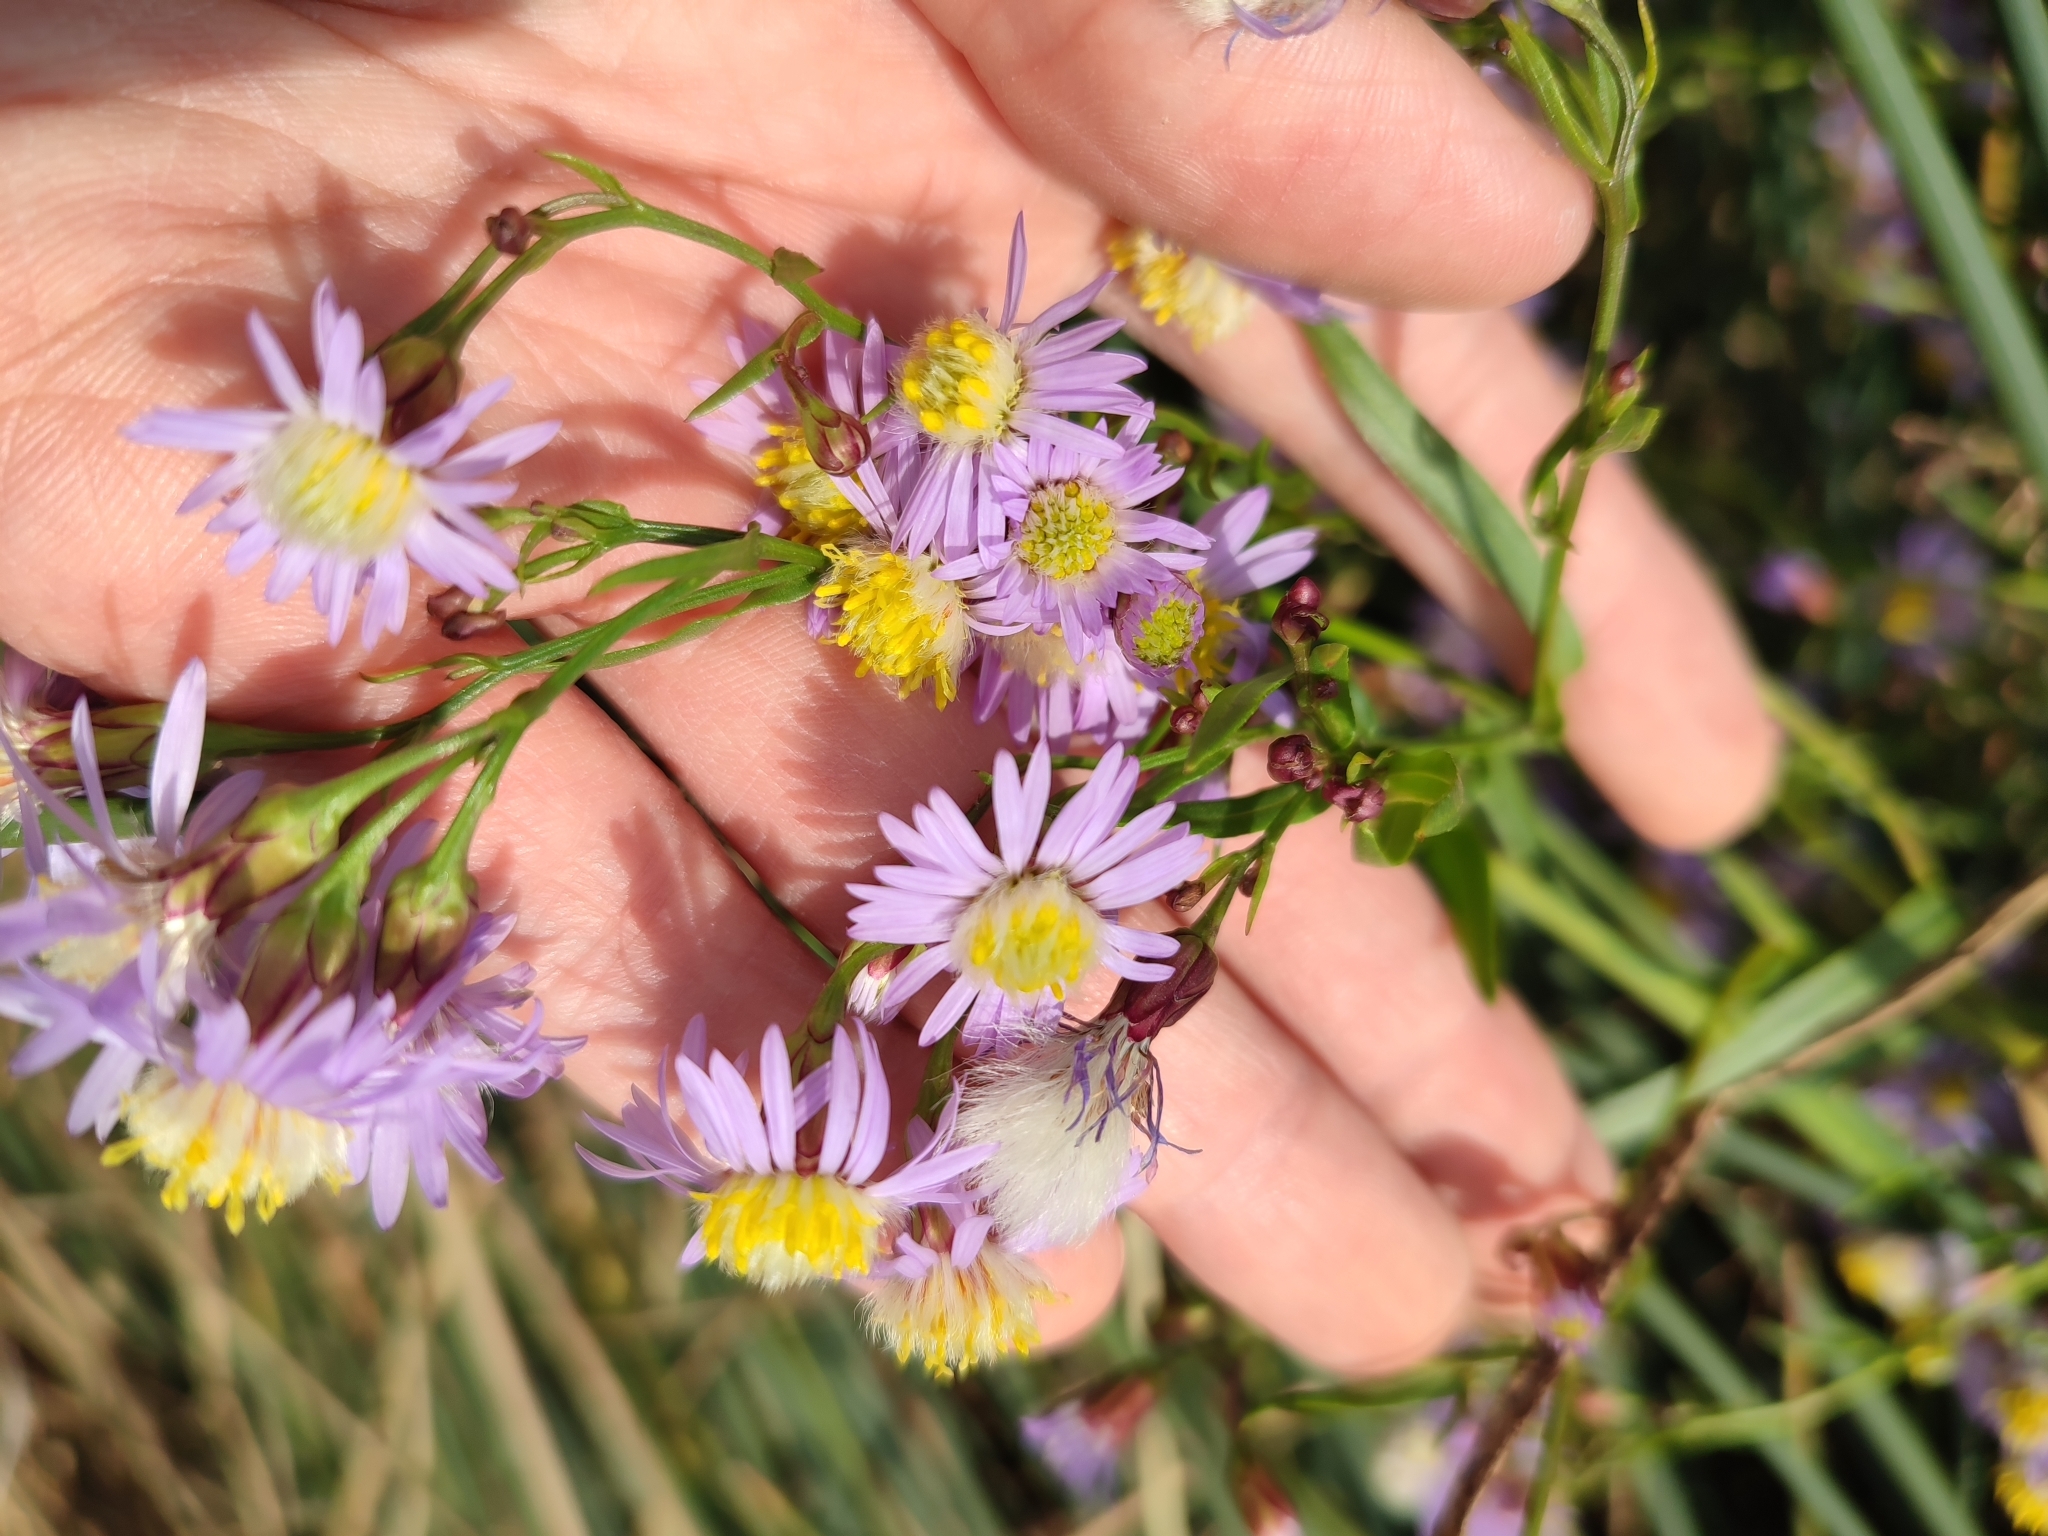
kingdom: Plantae
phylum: Tracheophyta
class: Magnoliopsida
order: Asterales
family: Asteraceae
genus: Tripolium
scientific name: Tripolium pannonicum
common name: Sea aster
